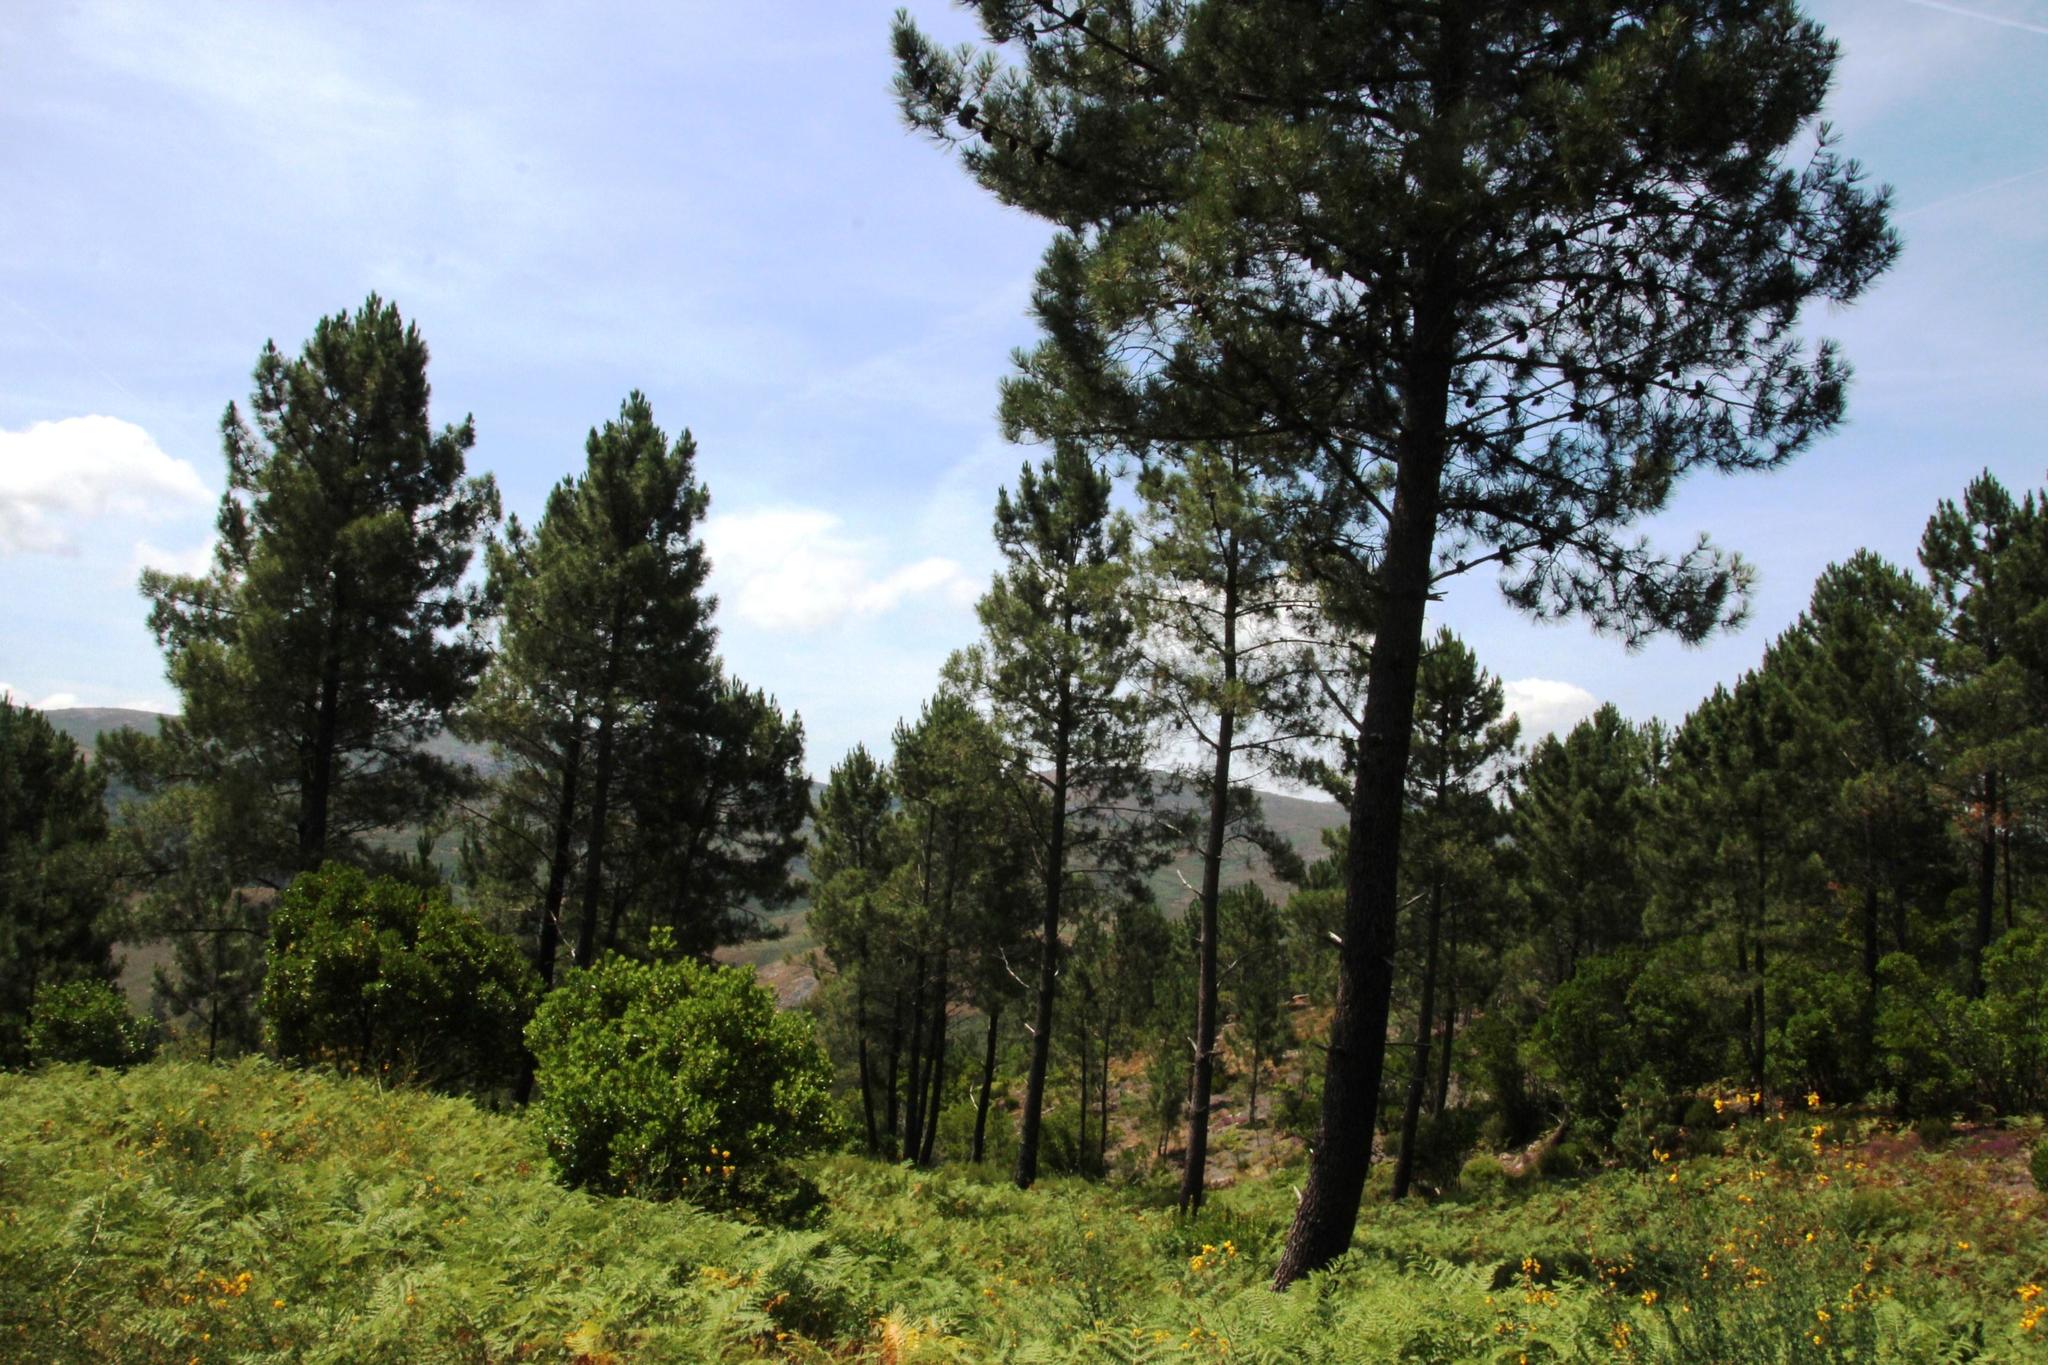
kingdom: Plantae
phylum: Tracheophyta
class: Pinopsida
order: Pinales
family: Pinaceae
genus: Pinus
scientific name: Pinus pinaster
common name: Maritime pine
